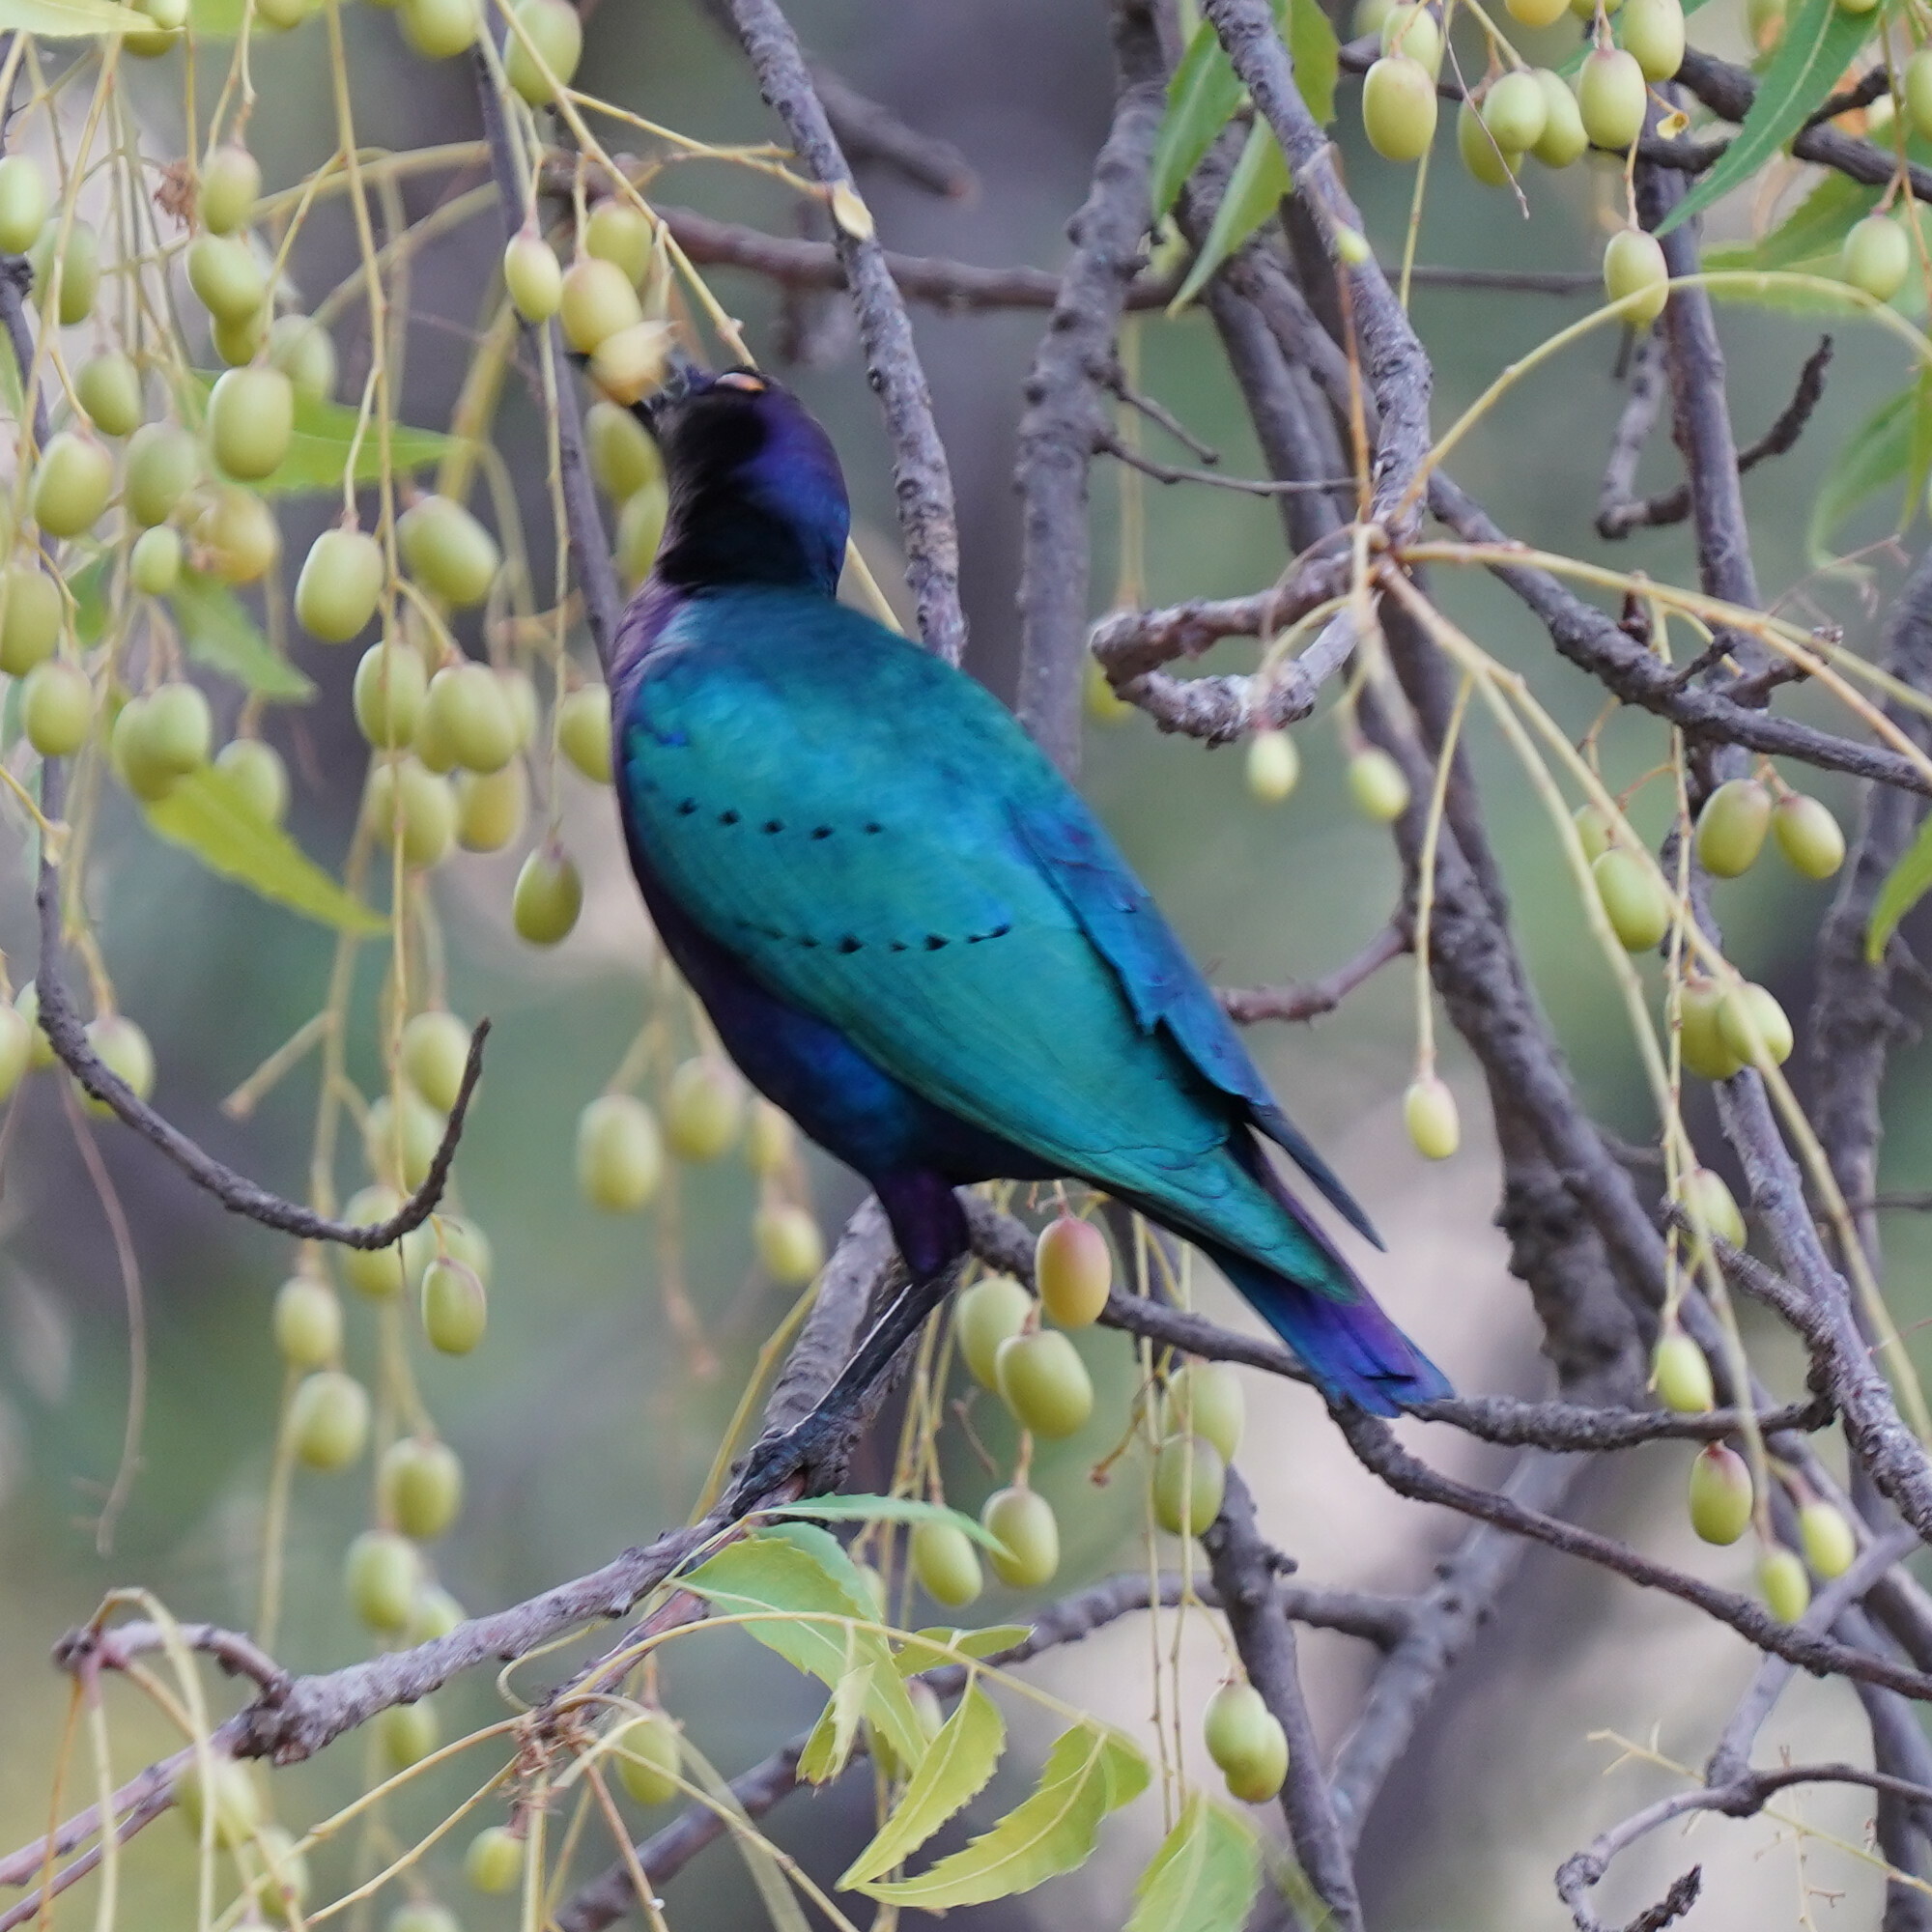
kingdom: Animalia
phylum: Chordata
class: Aves
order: Passeriformes
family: Sturnidae
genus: Lamprotornis
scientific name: Lamprotornis purpureus
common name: Purple starling
